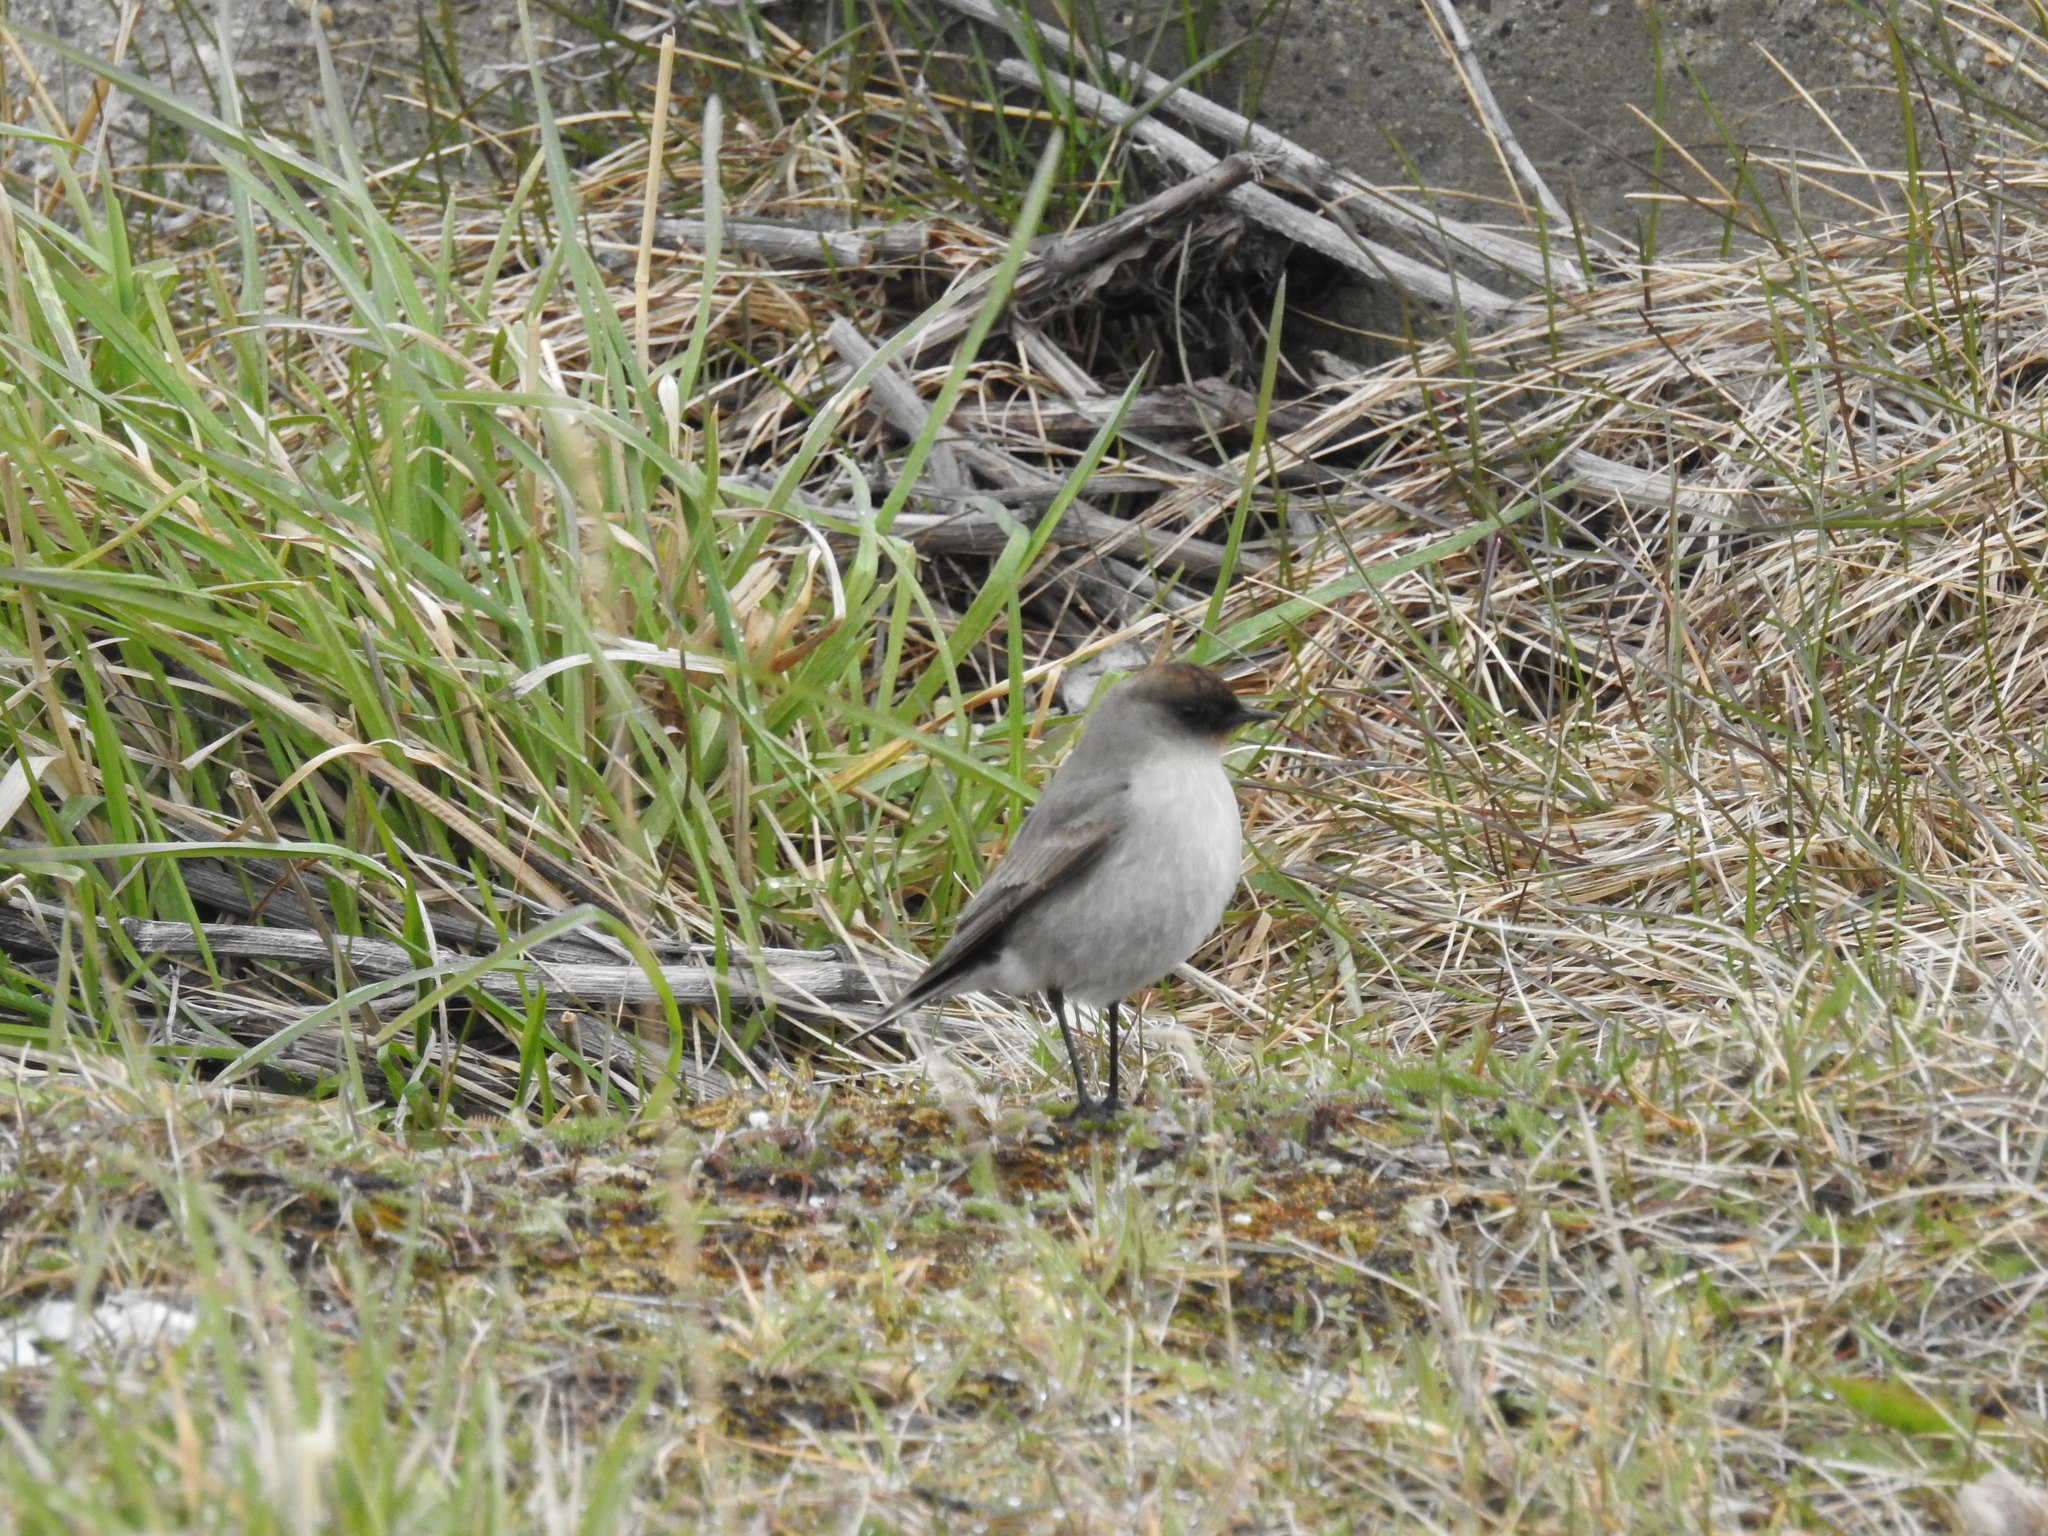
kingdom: Animalia
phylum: Chordata
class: Aves
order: Passeriformes
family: Tyrannidae
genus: Muscisaxicola
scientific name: Muscisaxicola maclovianus
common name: Dark-faced ground tyrant
